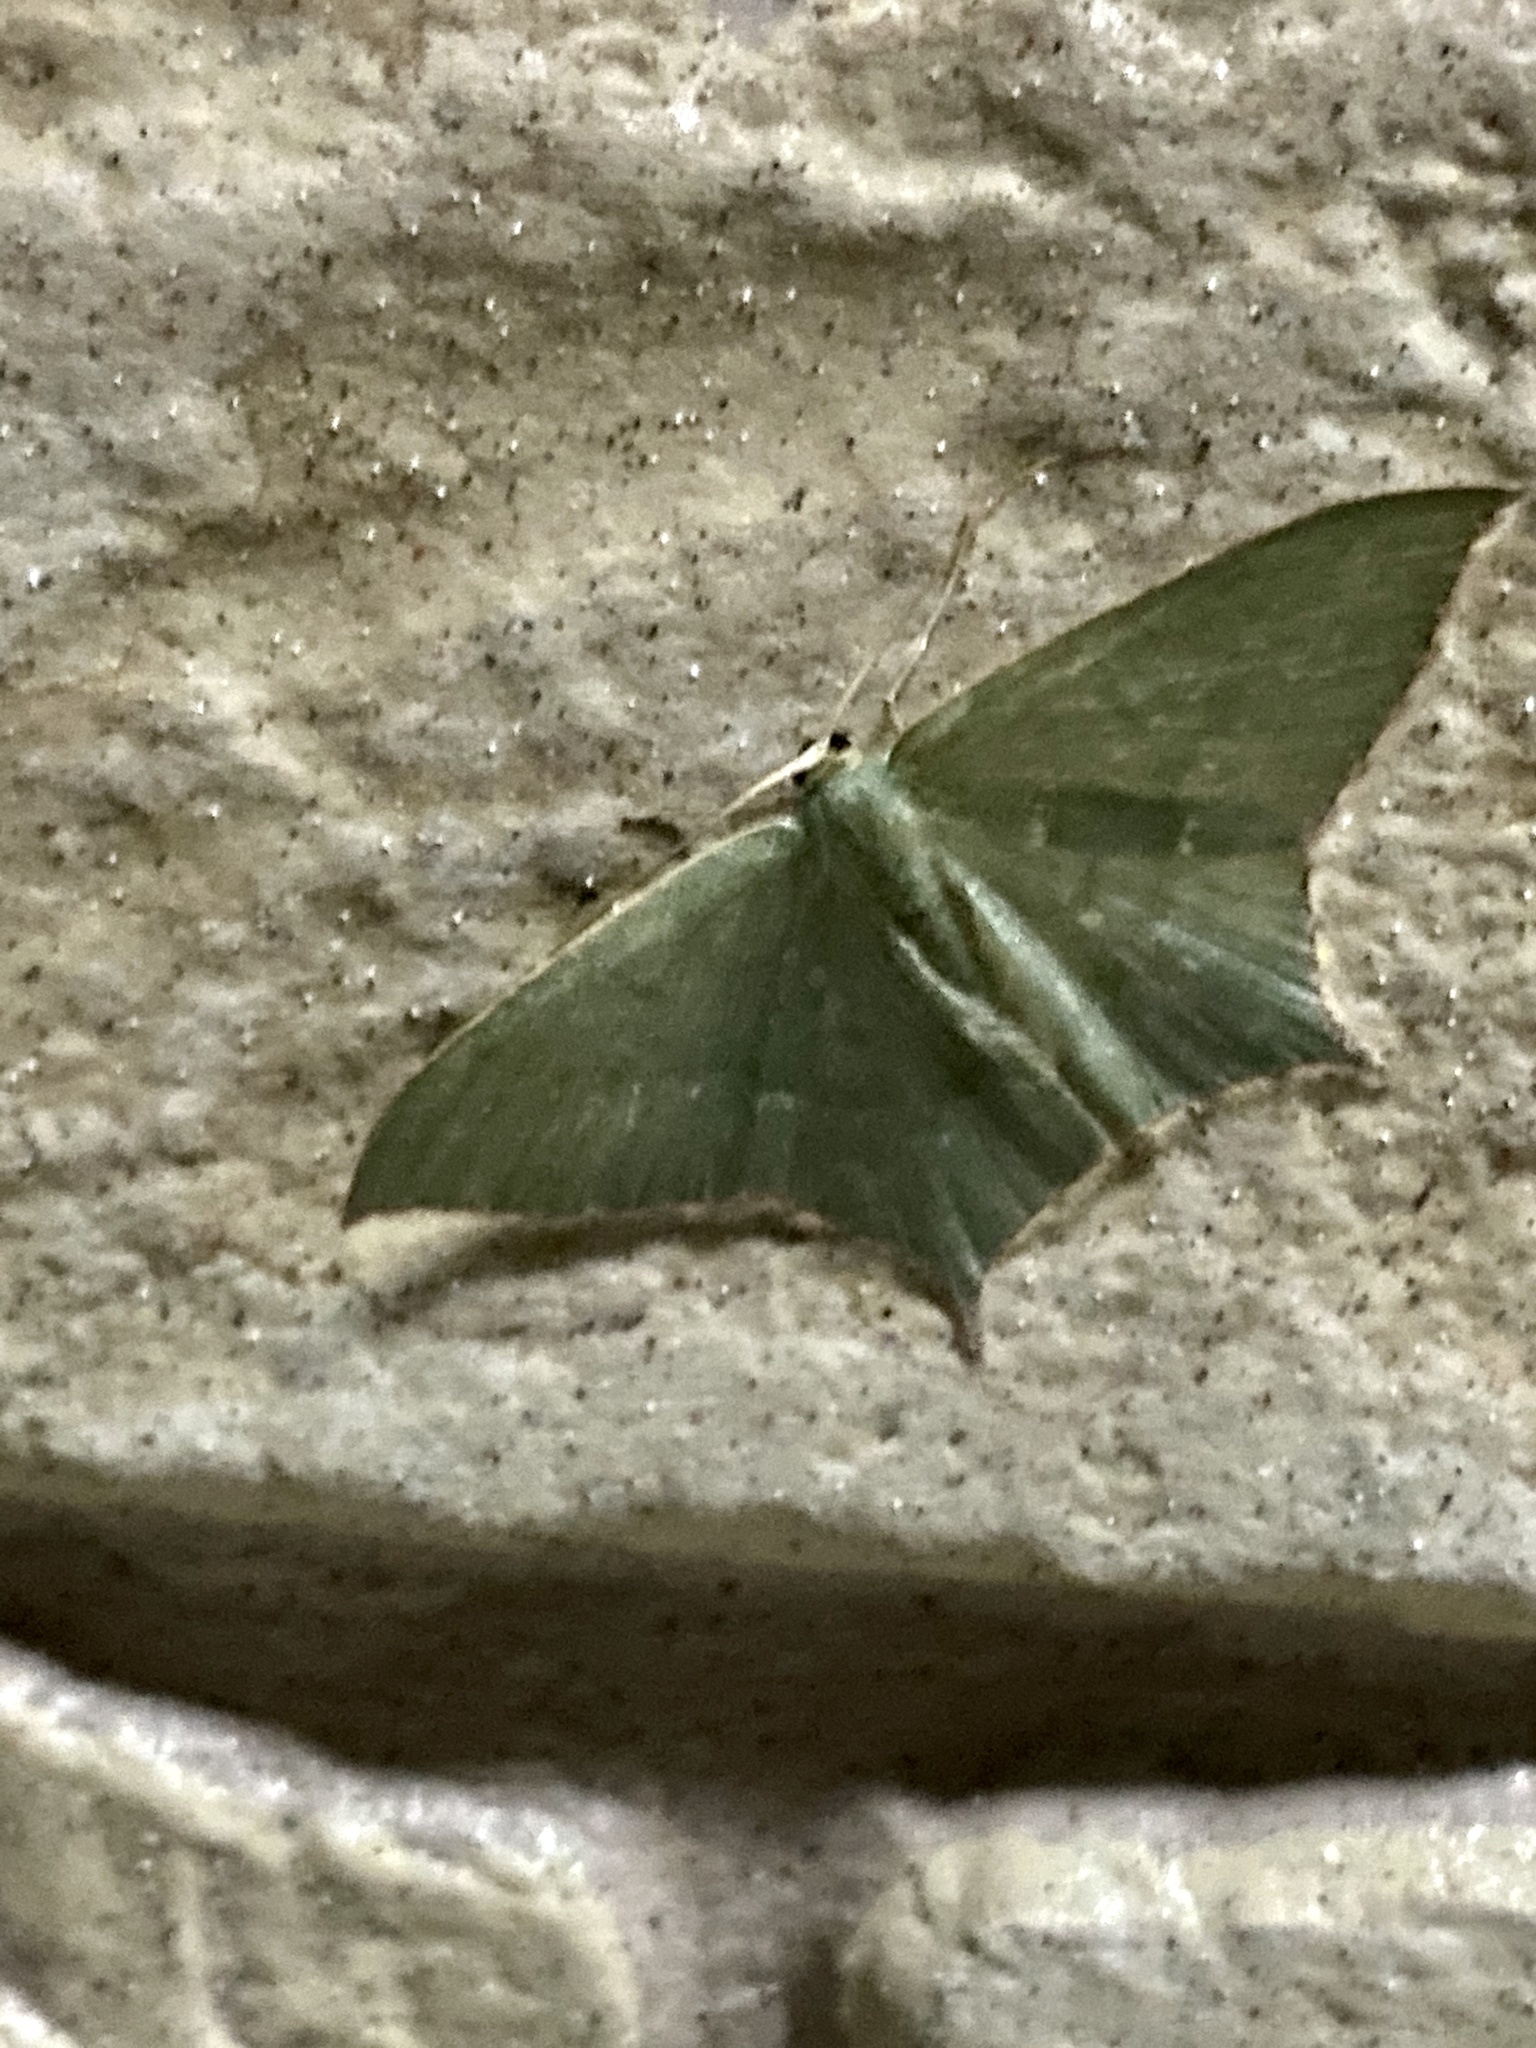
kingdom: Animalia
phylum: Arthropoda
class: Insecta
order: Lepidoptera
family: Geometridae
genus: Maxates
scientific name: Maxates protrusa
